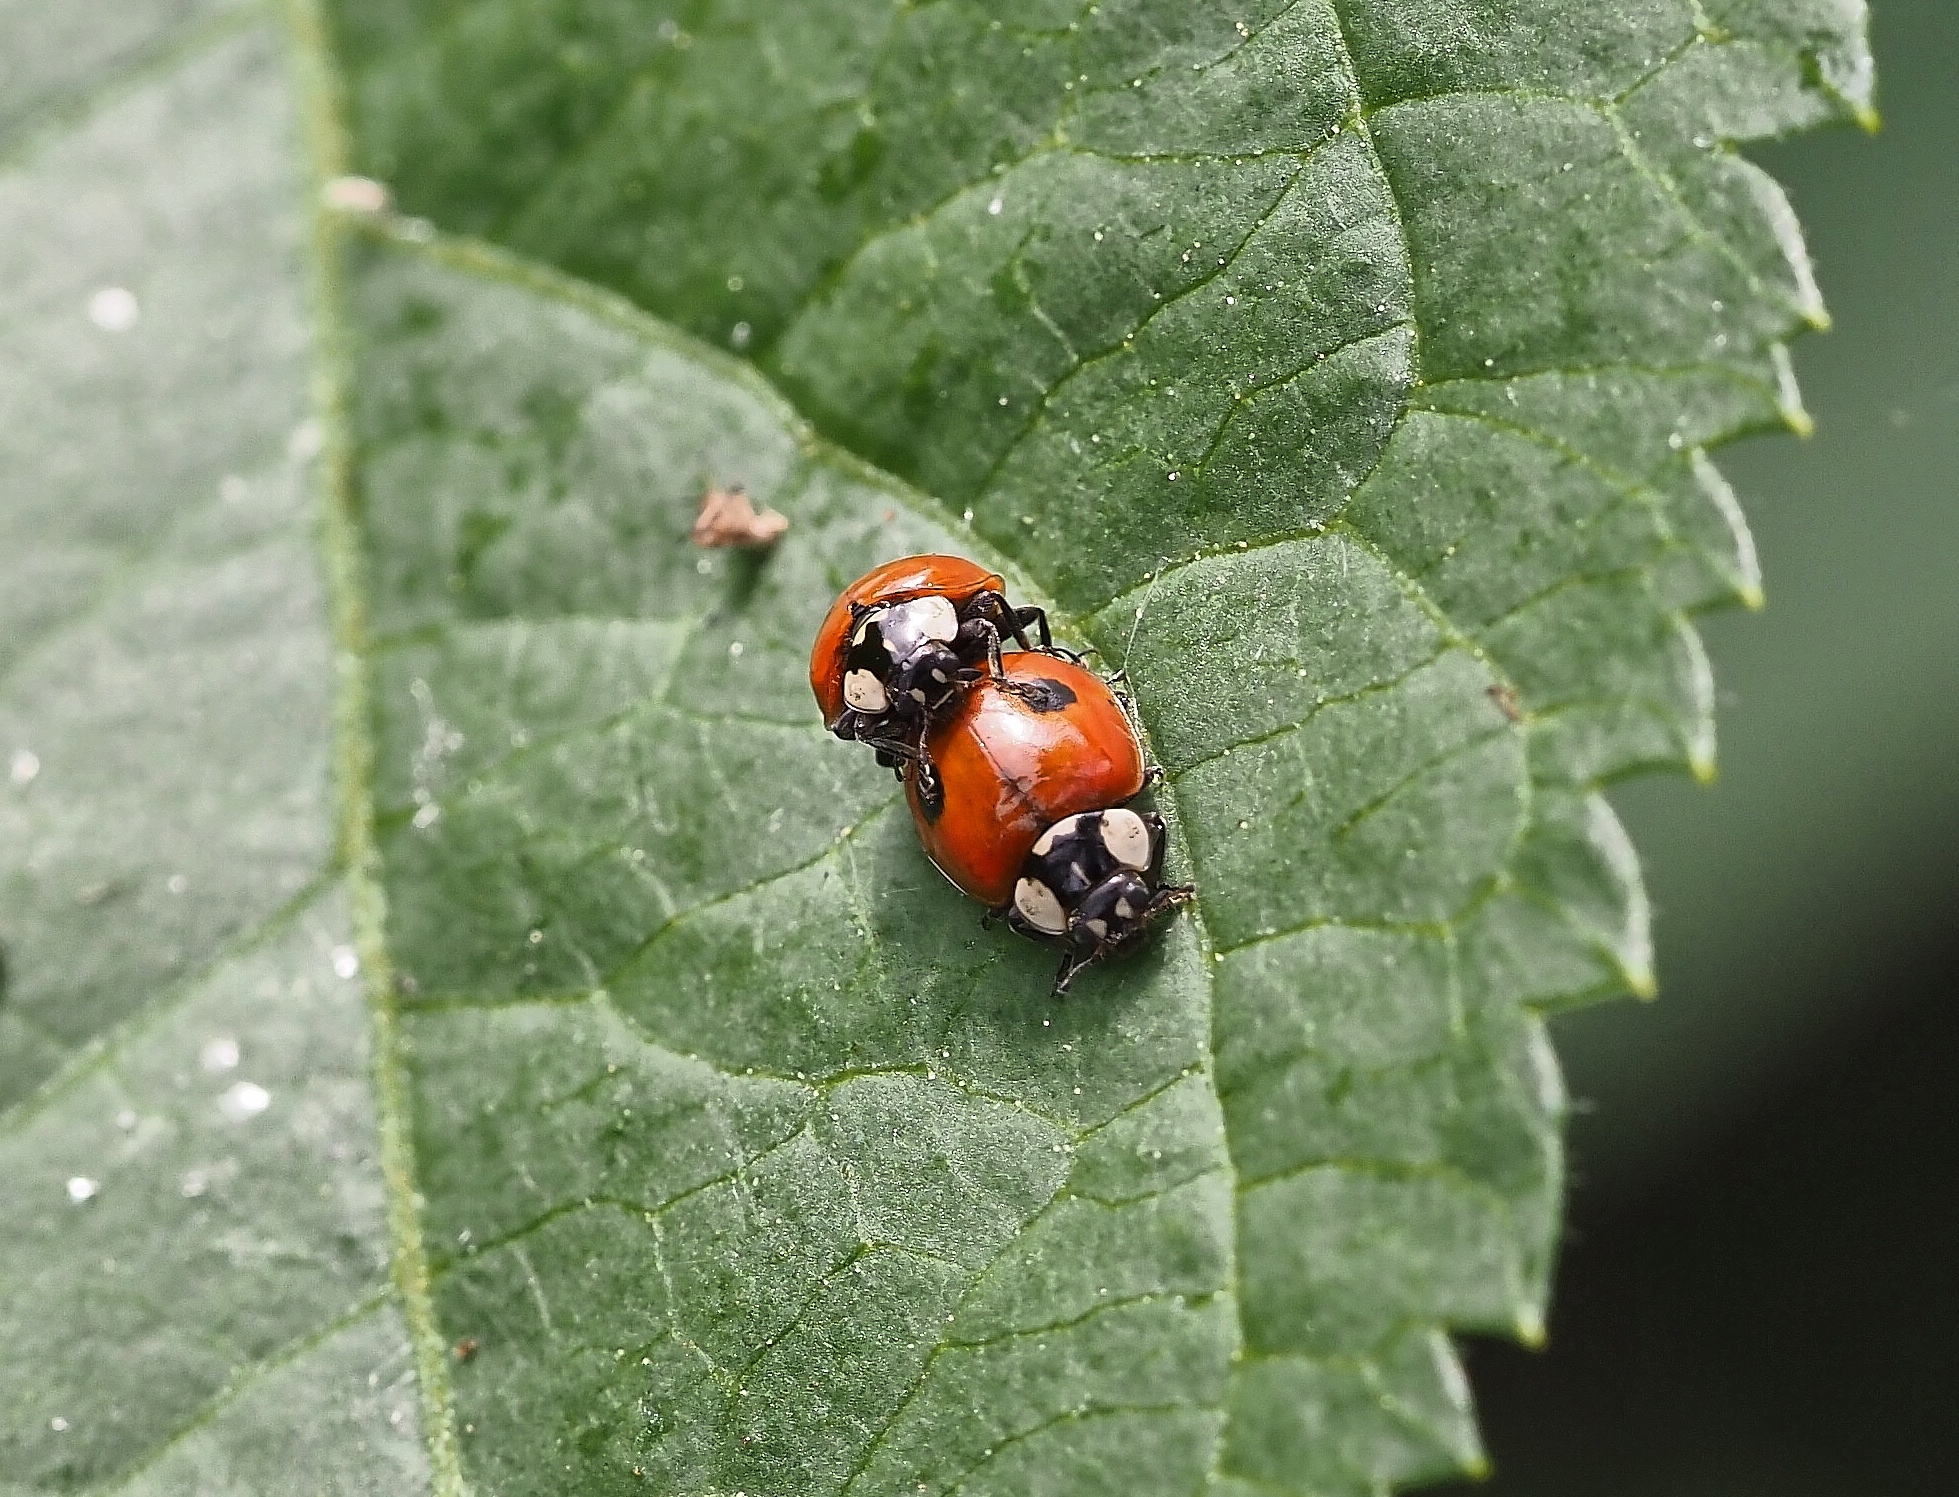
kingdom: Animalia
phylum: Arthropoda
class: Insecta
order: Coleoptera
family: Coccinellidae
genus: Adalia
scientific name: Adalia bipunctata
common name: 2-spot ladybird
